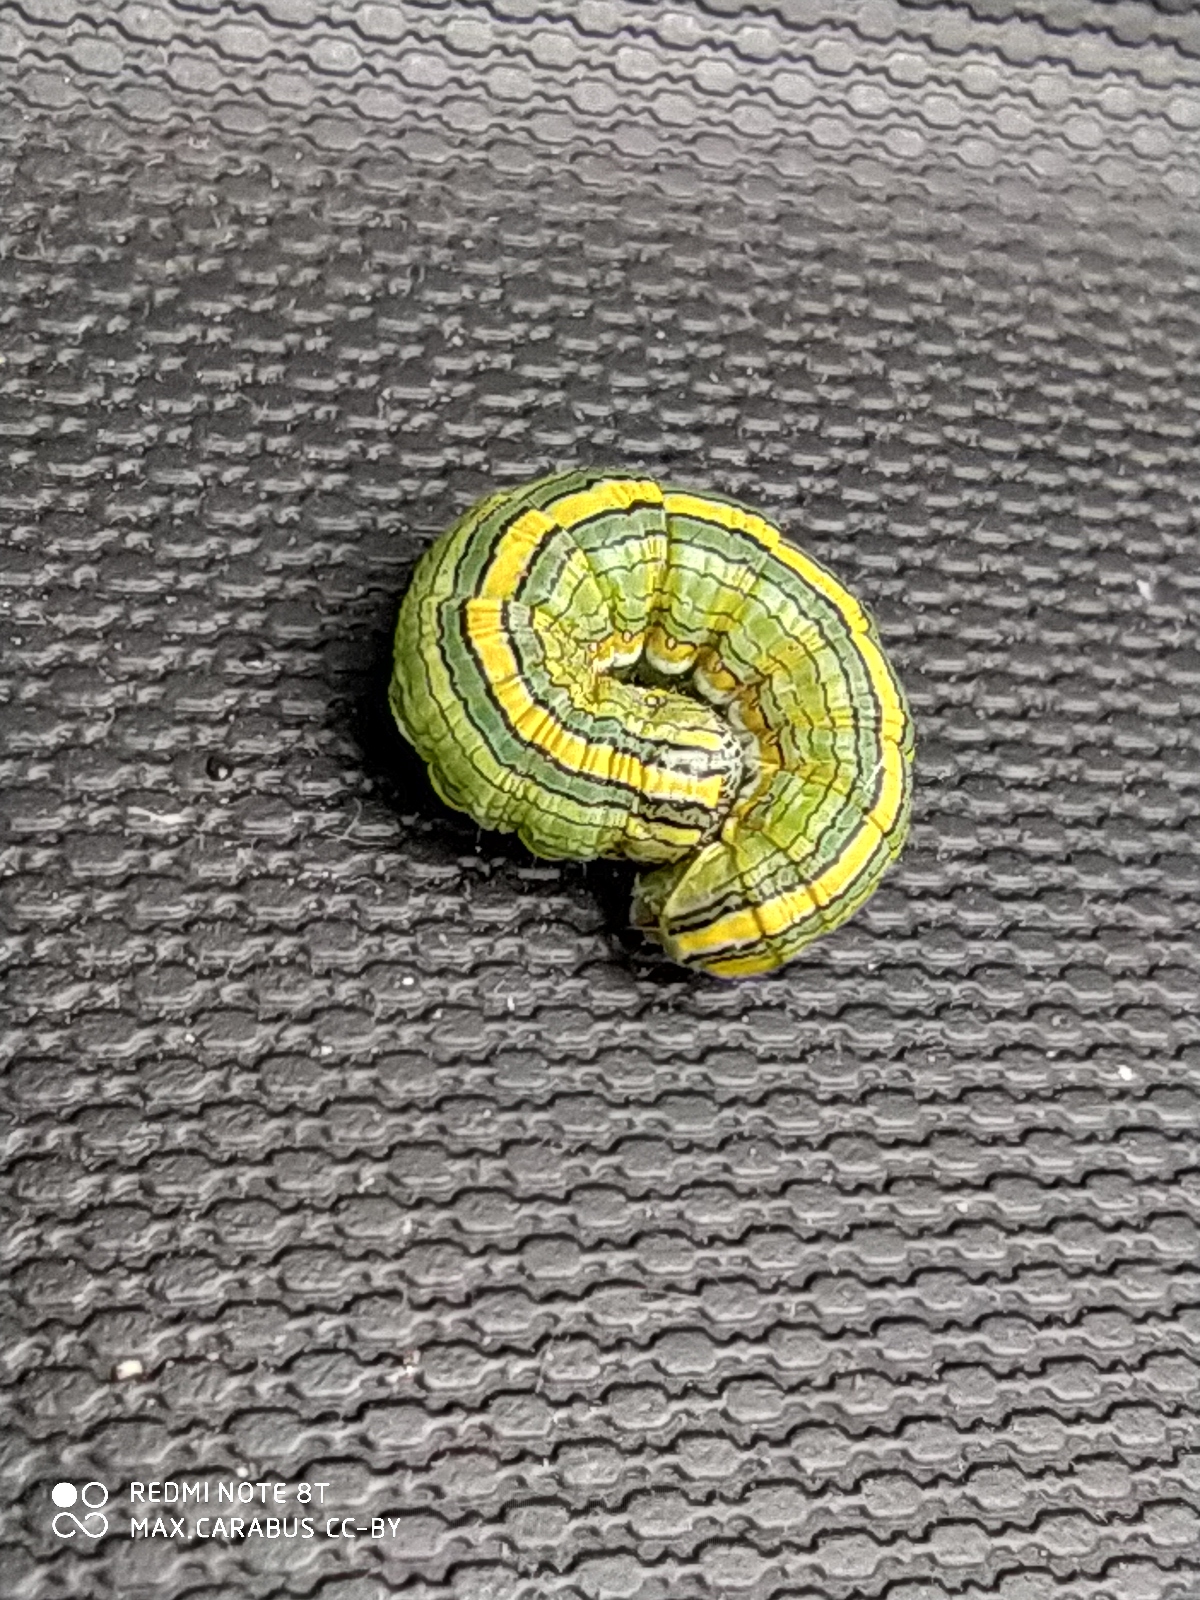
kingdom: Animalia
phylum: Arthropoda
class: Insecta
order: Lepidoptera
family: Noctuidae
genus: Cucullia
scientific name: Cucullia asteris
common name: Star-wort
